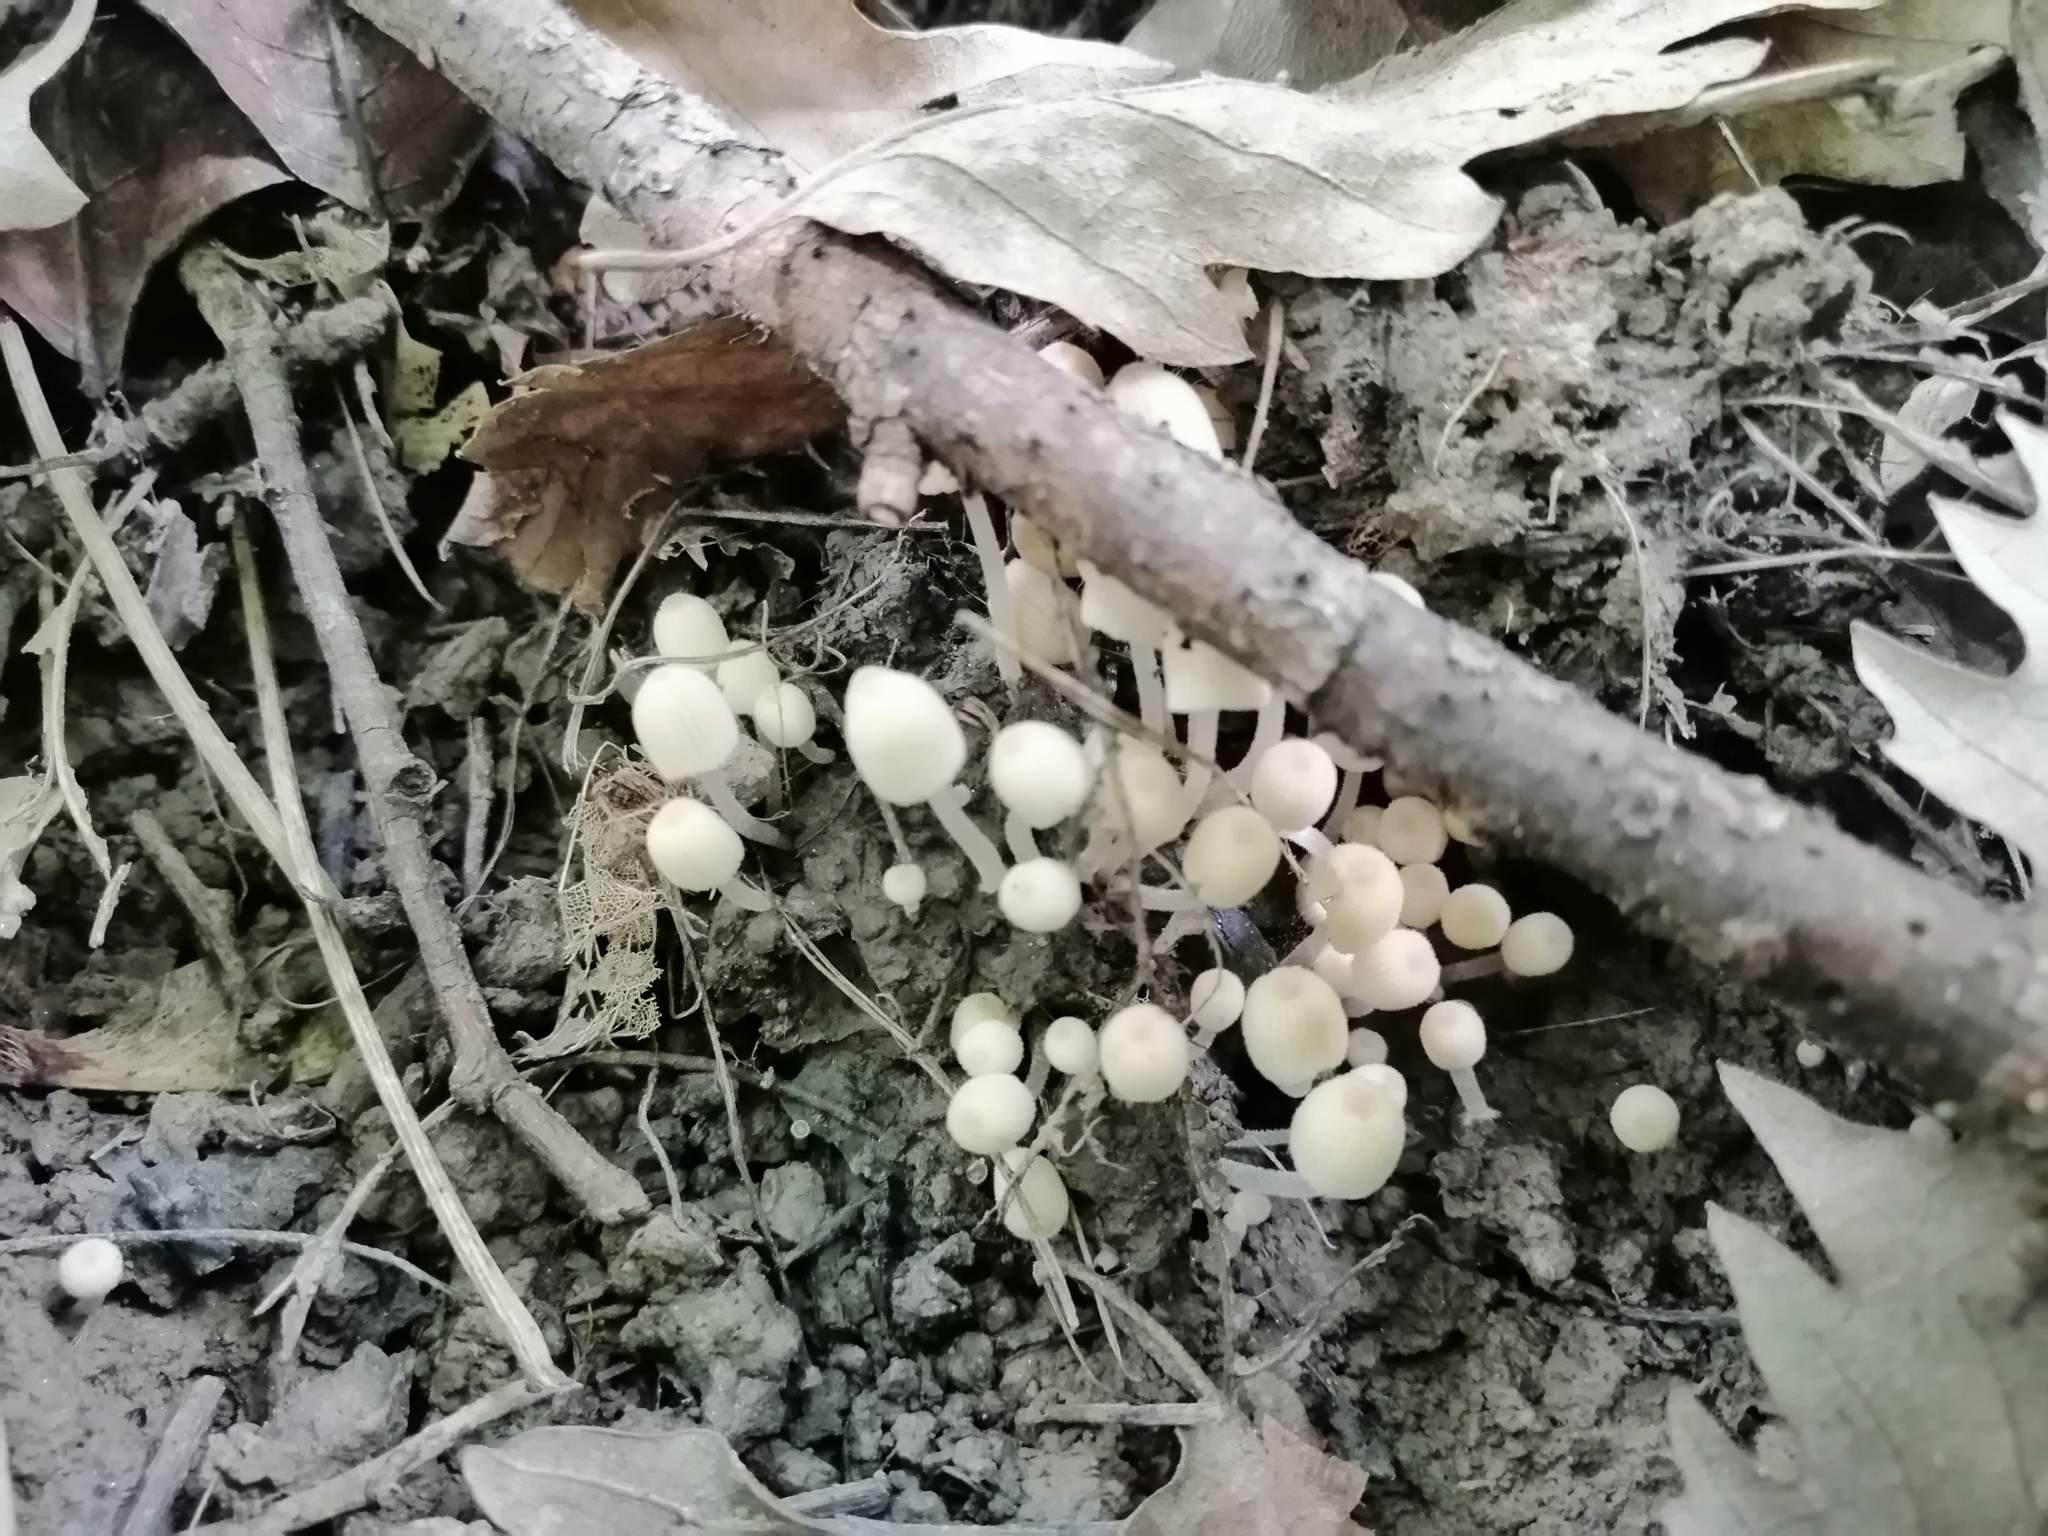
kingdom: Fungi
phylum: Basidiomycota
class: Agaricomycetes
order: Agaricales
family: Psathyrellaceae
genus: Coprinellus
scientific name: Coprinellus disseminatus
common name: Fairies' bonnets
